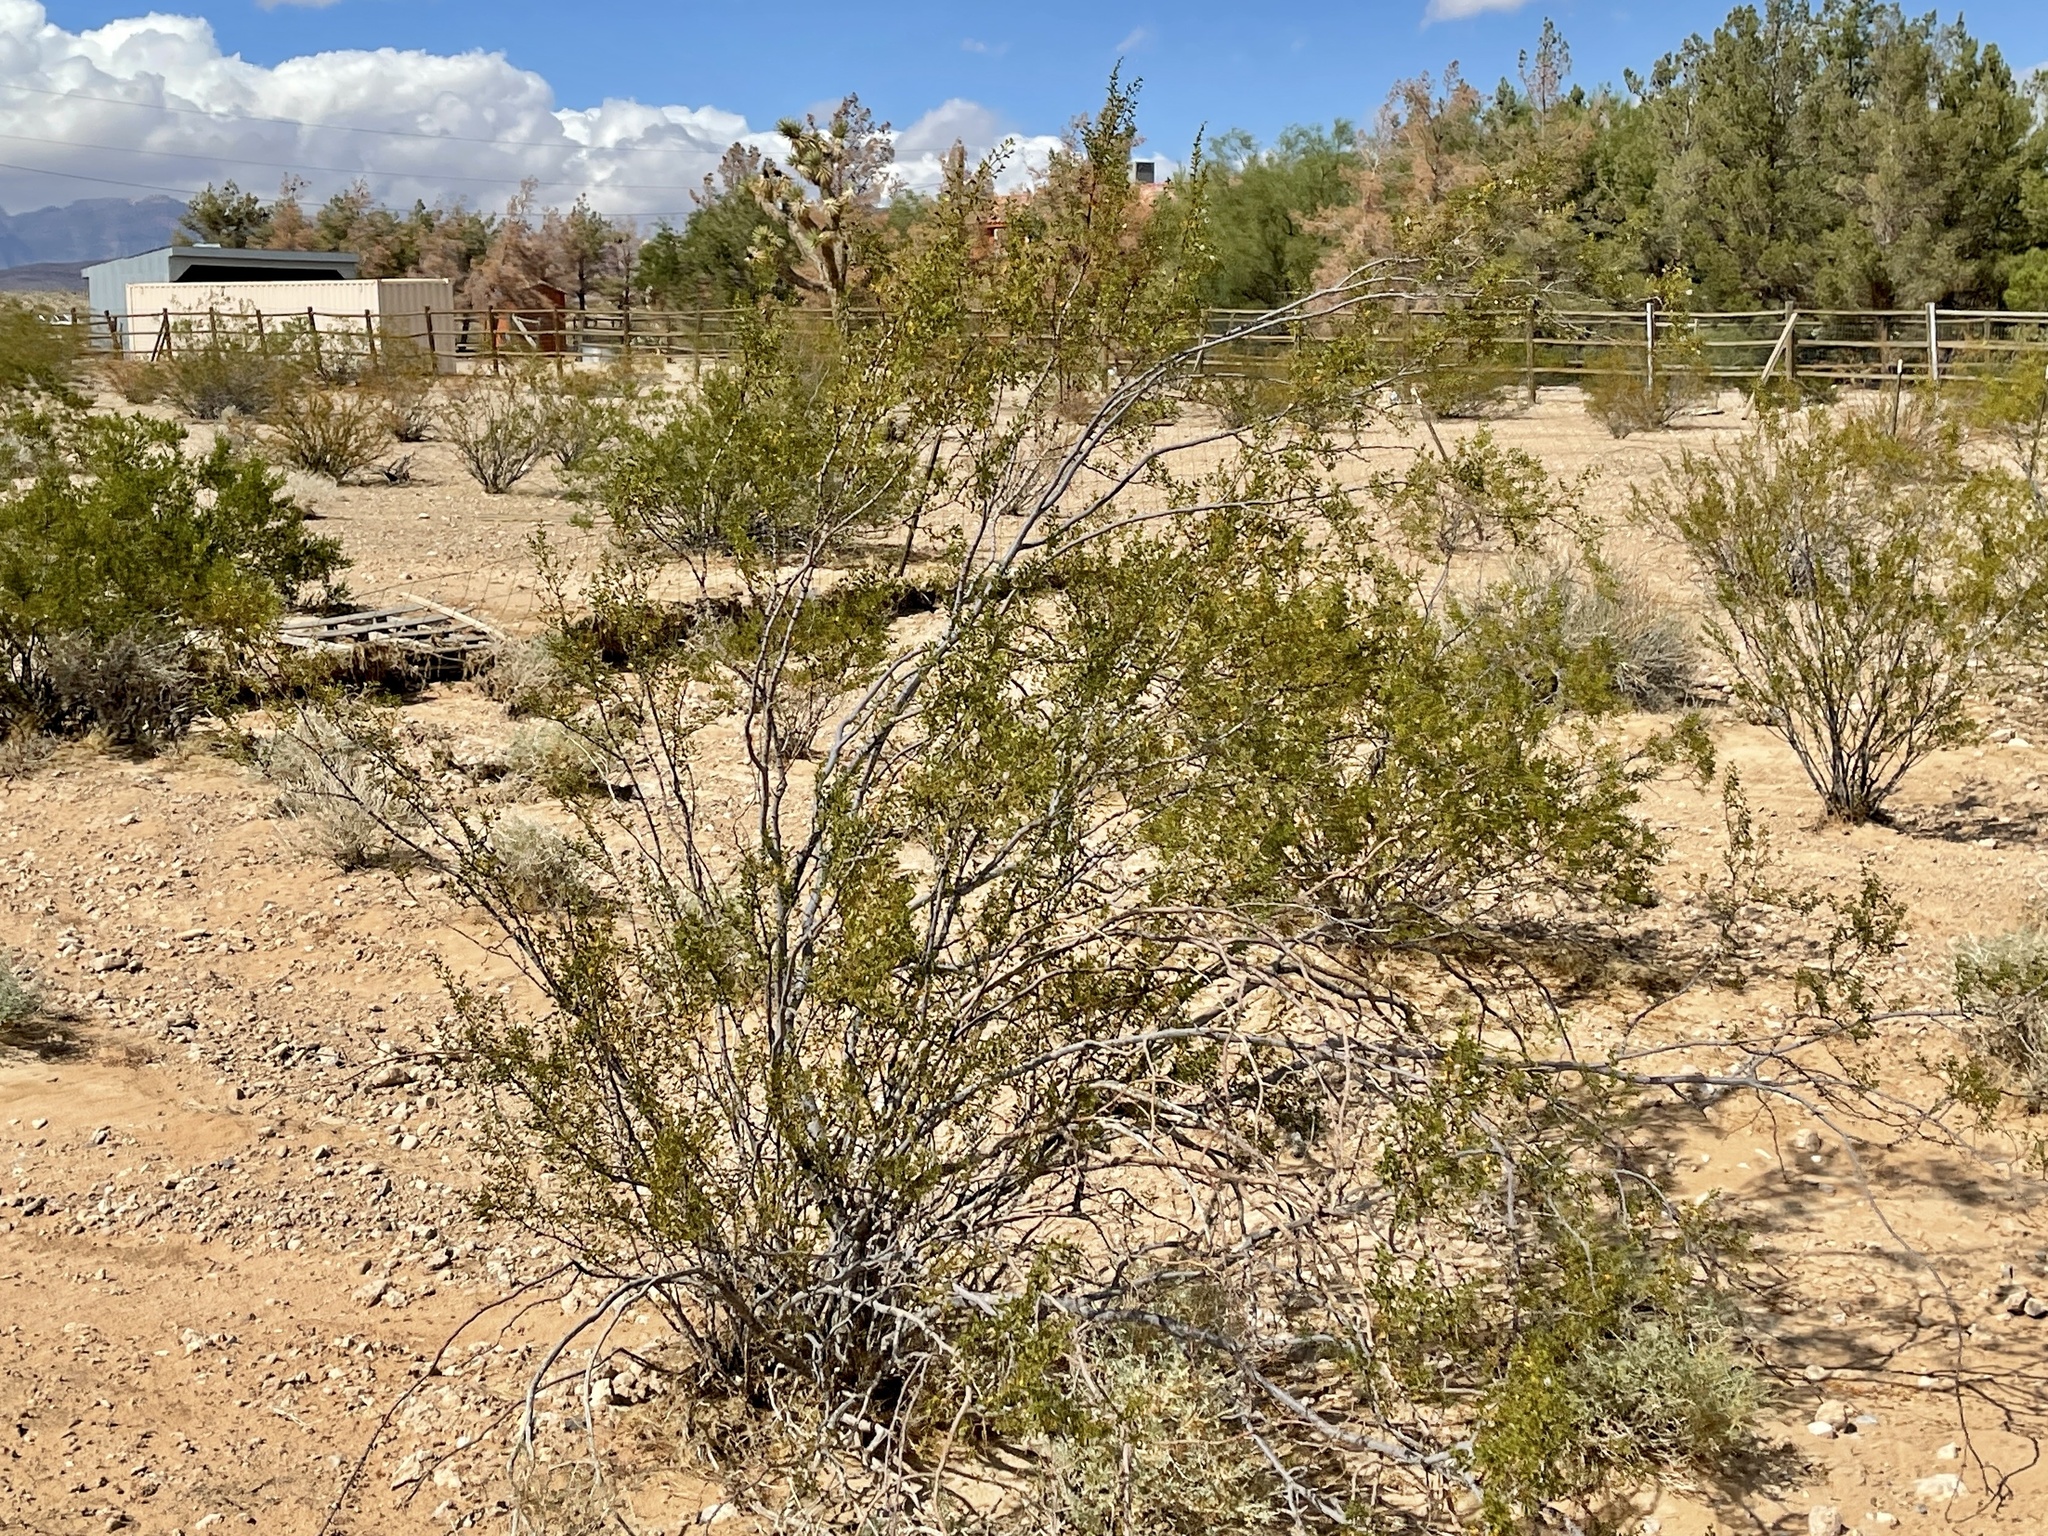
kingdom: Plantae
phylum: Tracheophyta
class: Magnoliopsida
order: Zygophyllales
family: Zygophyllaceae
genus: Larrea
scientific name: Larrea tridentata
